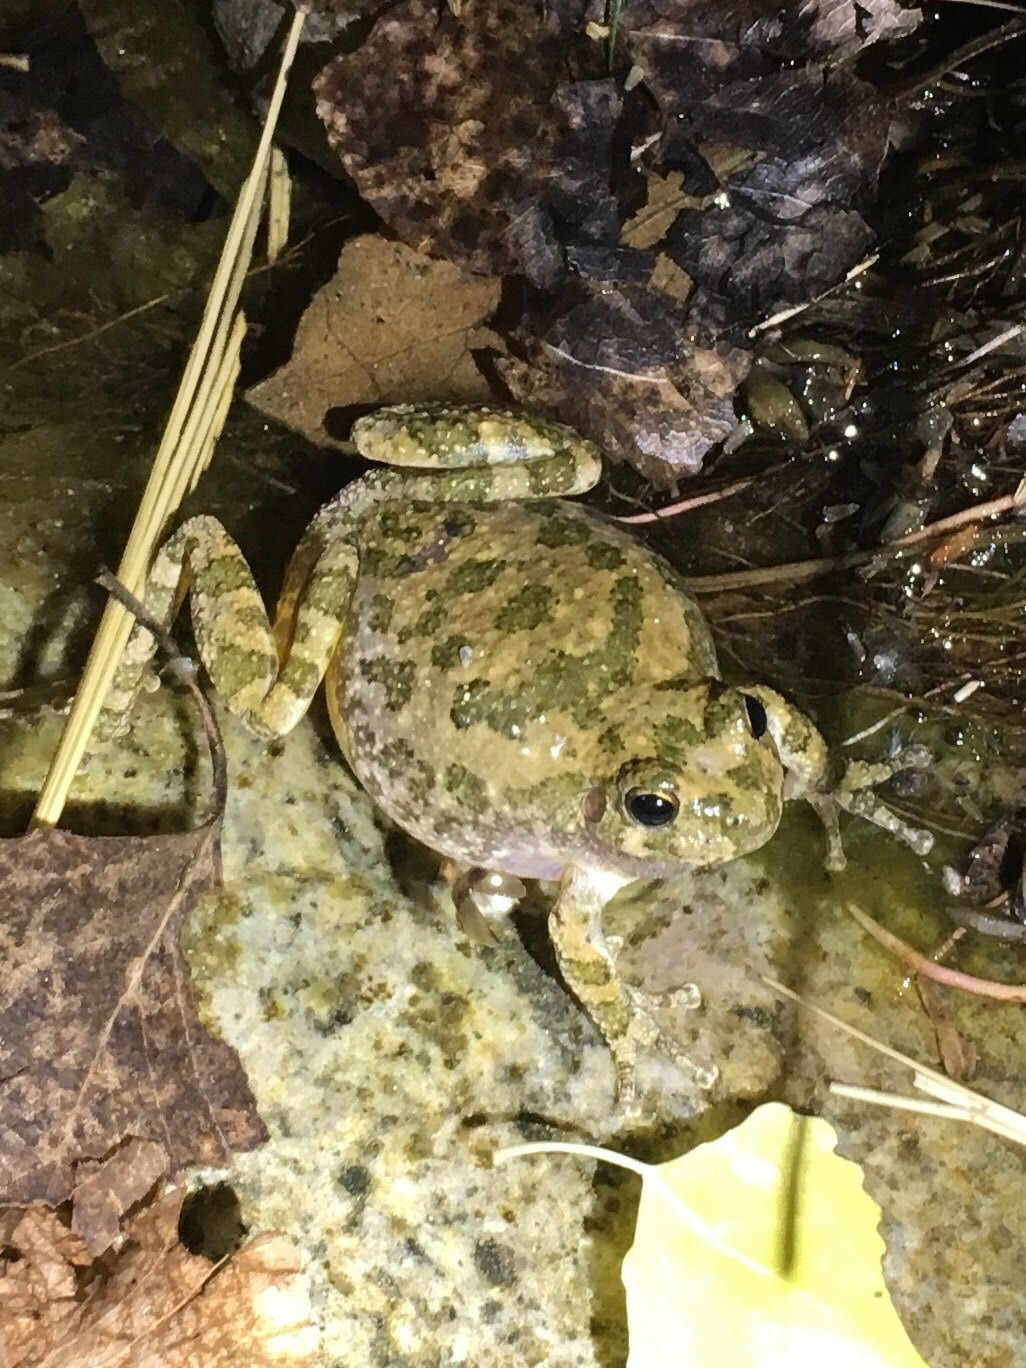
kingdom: Animalia
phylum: Chordata
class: Amphibia
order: Anura
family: Hylidae
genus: Dryophytes
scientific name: Dryophytes arenicolor
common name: Canyon treefrog
